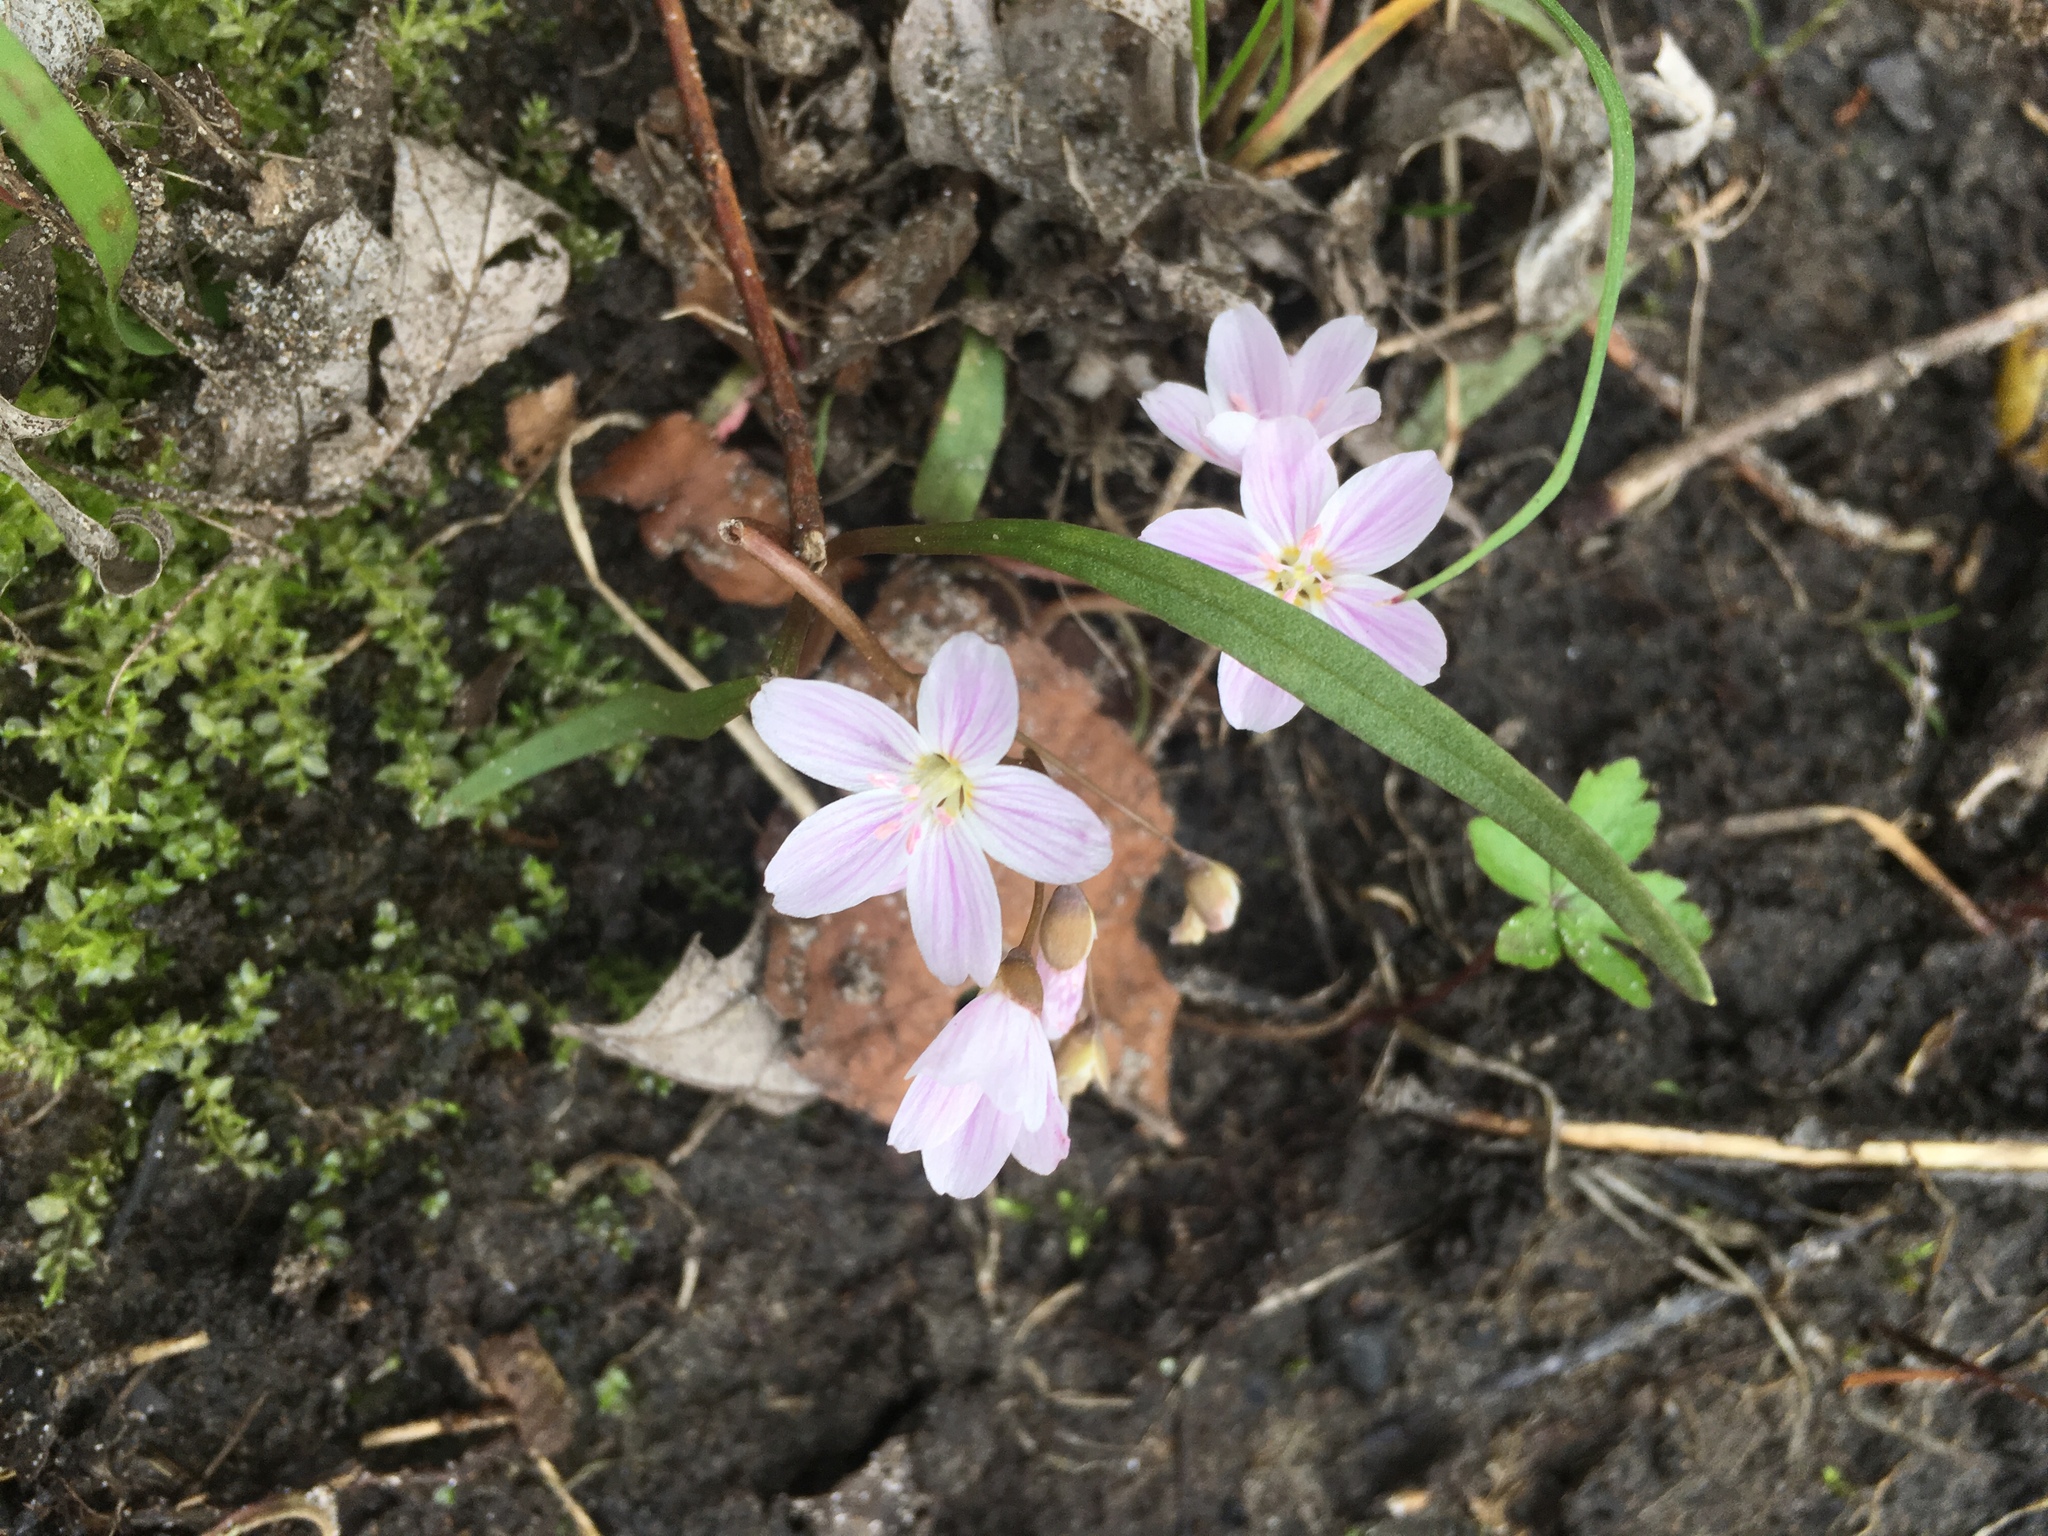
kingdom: Plantae
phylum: Tracheophyta
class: Magnoliopsida
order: Caryophyllales
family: Montiaceae
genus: Claytonia
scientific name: Claytonia virginica
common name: Virginia springbeauty
